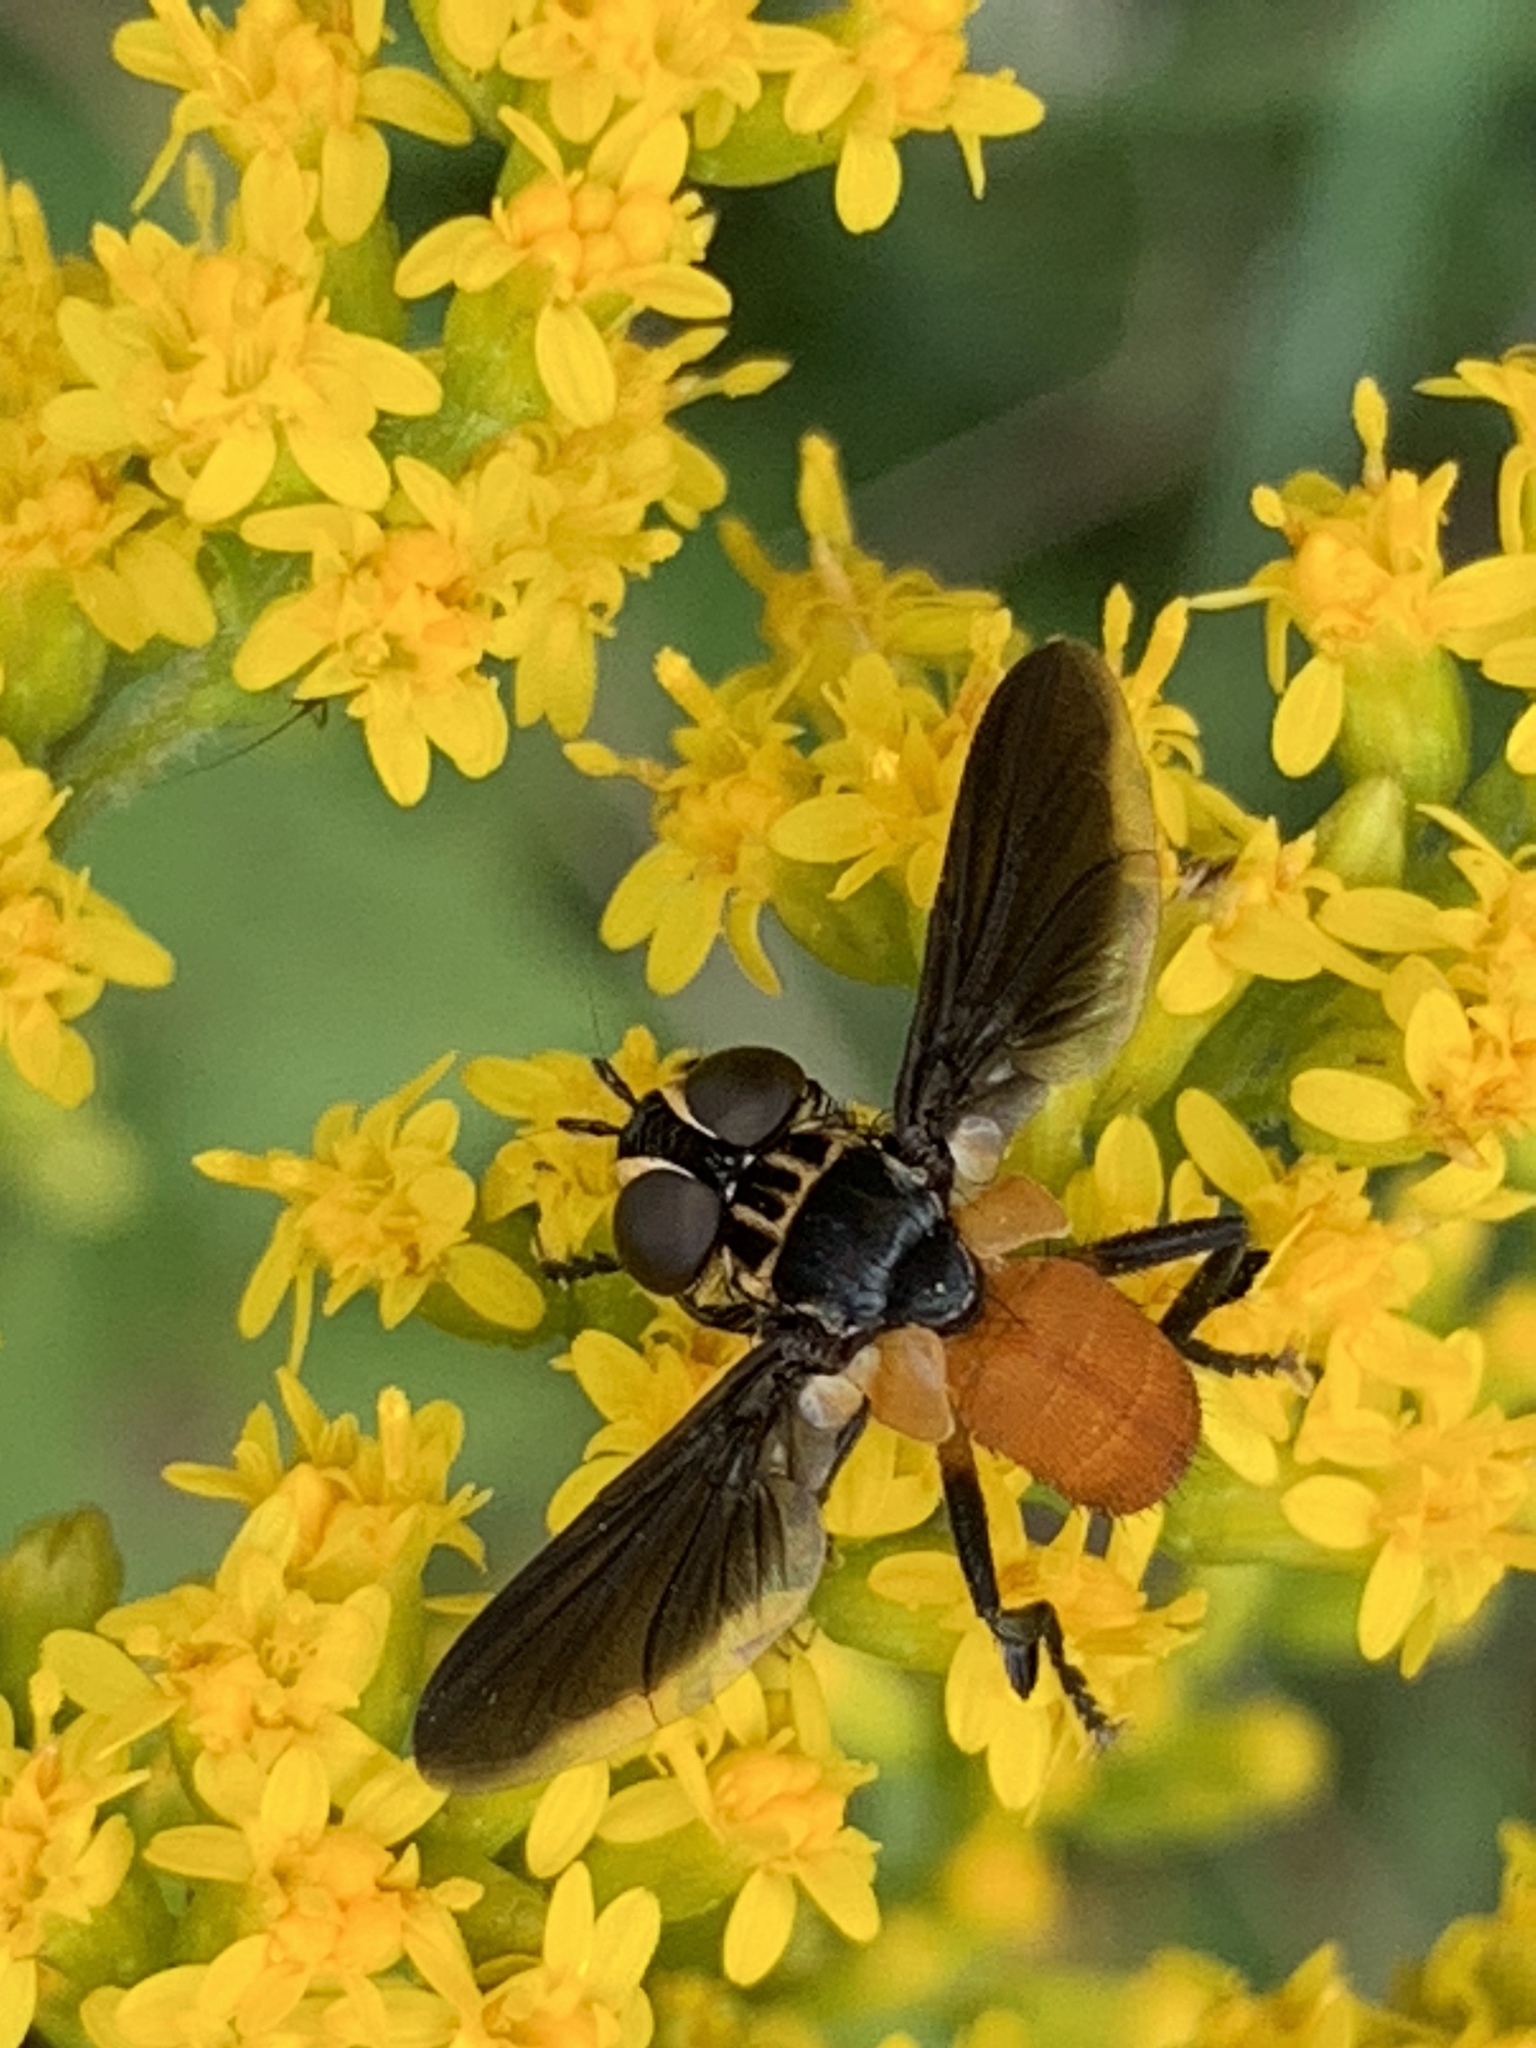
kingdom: Animalia
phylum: Arthropoda
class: Insecta
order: Diptera
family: Tachinidae
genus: Trichopoda
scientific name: Trichopoda pennipes
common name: Tachinid fly
